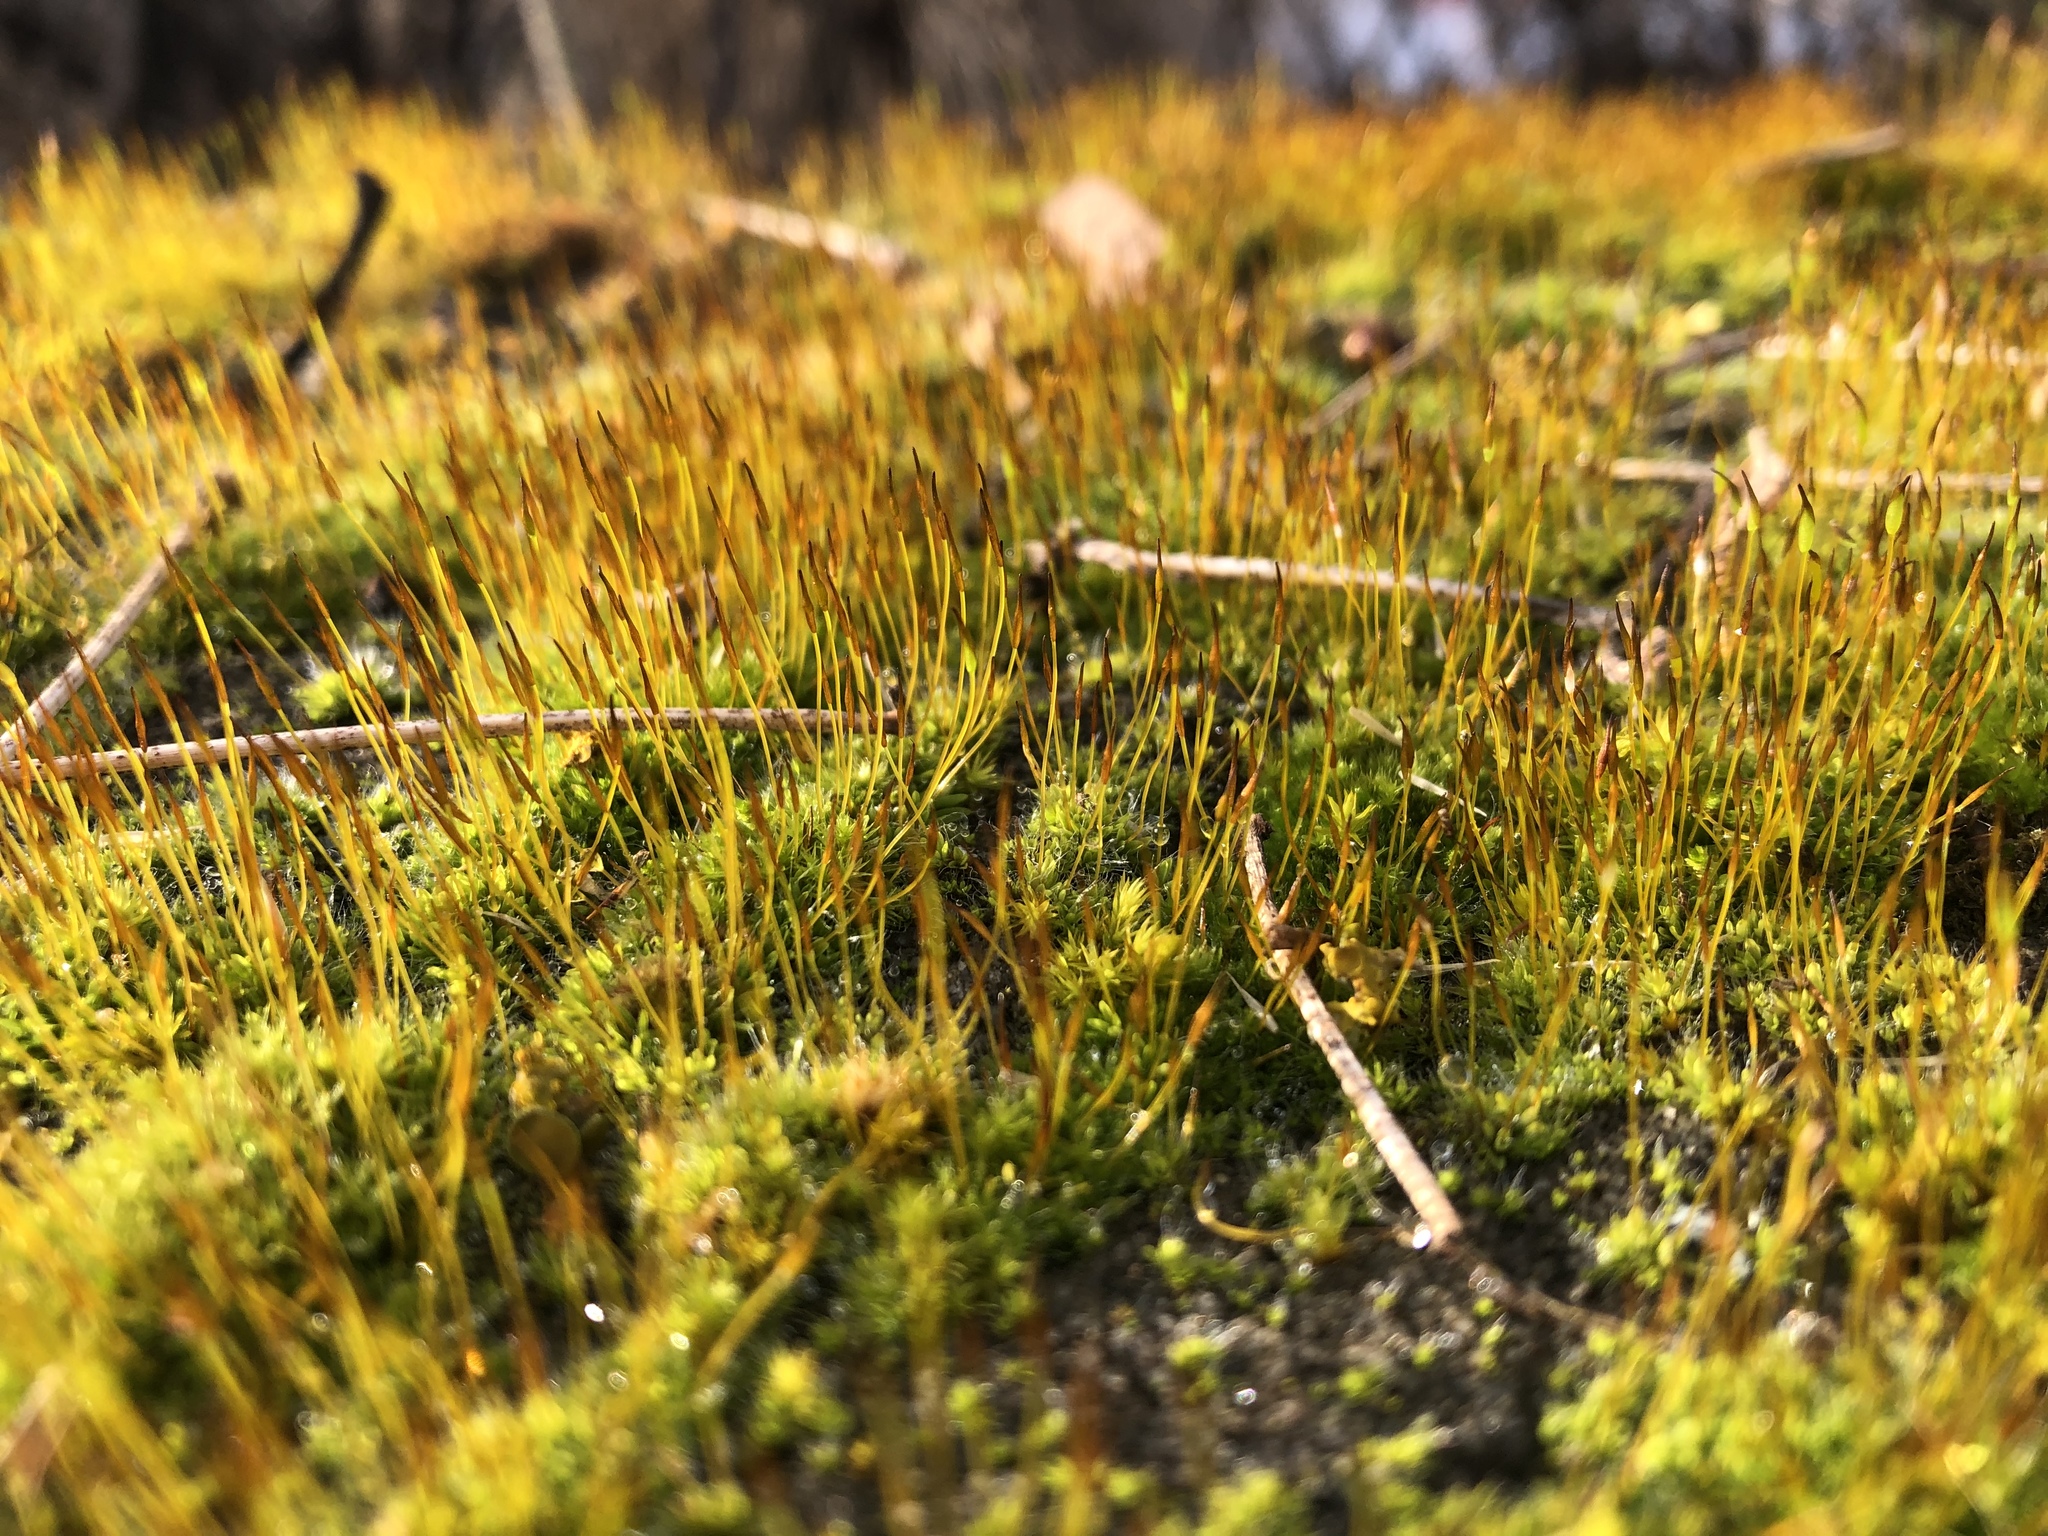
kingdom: Plantae
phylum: Bryophyta
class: Bryopsida
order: Pottiales
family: Pottiaceae
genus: Tortula
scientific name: Tortula muralis
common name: Wall screw-moss
